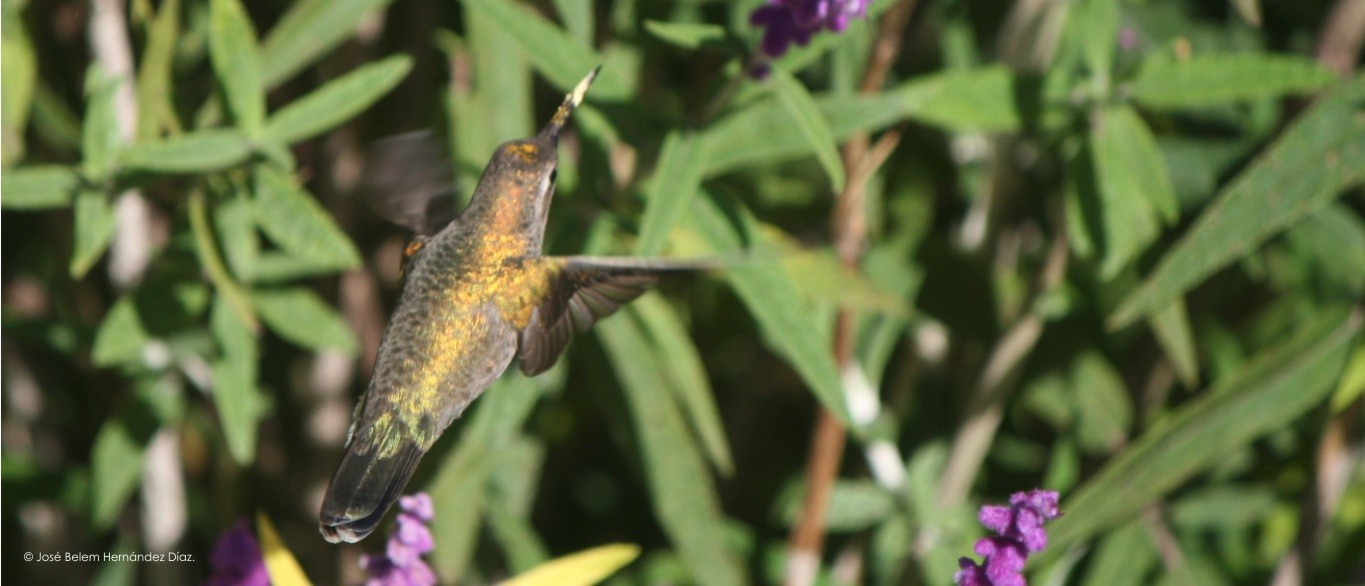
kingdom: Animalia
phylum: Chordata
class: Aves
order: Apodiformes
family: Trochilidae
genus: Phaeoptila
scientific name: Phaeoptila sordida
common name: Dusky hummingbird
